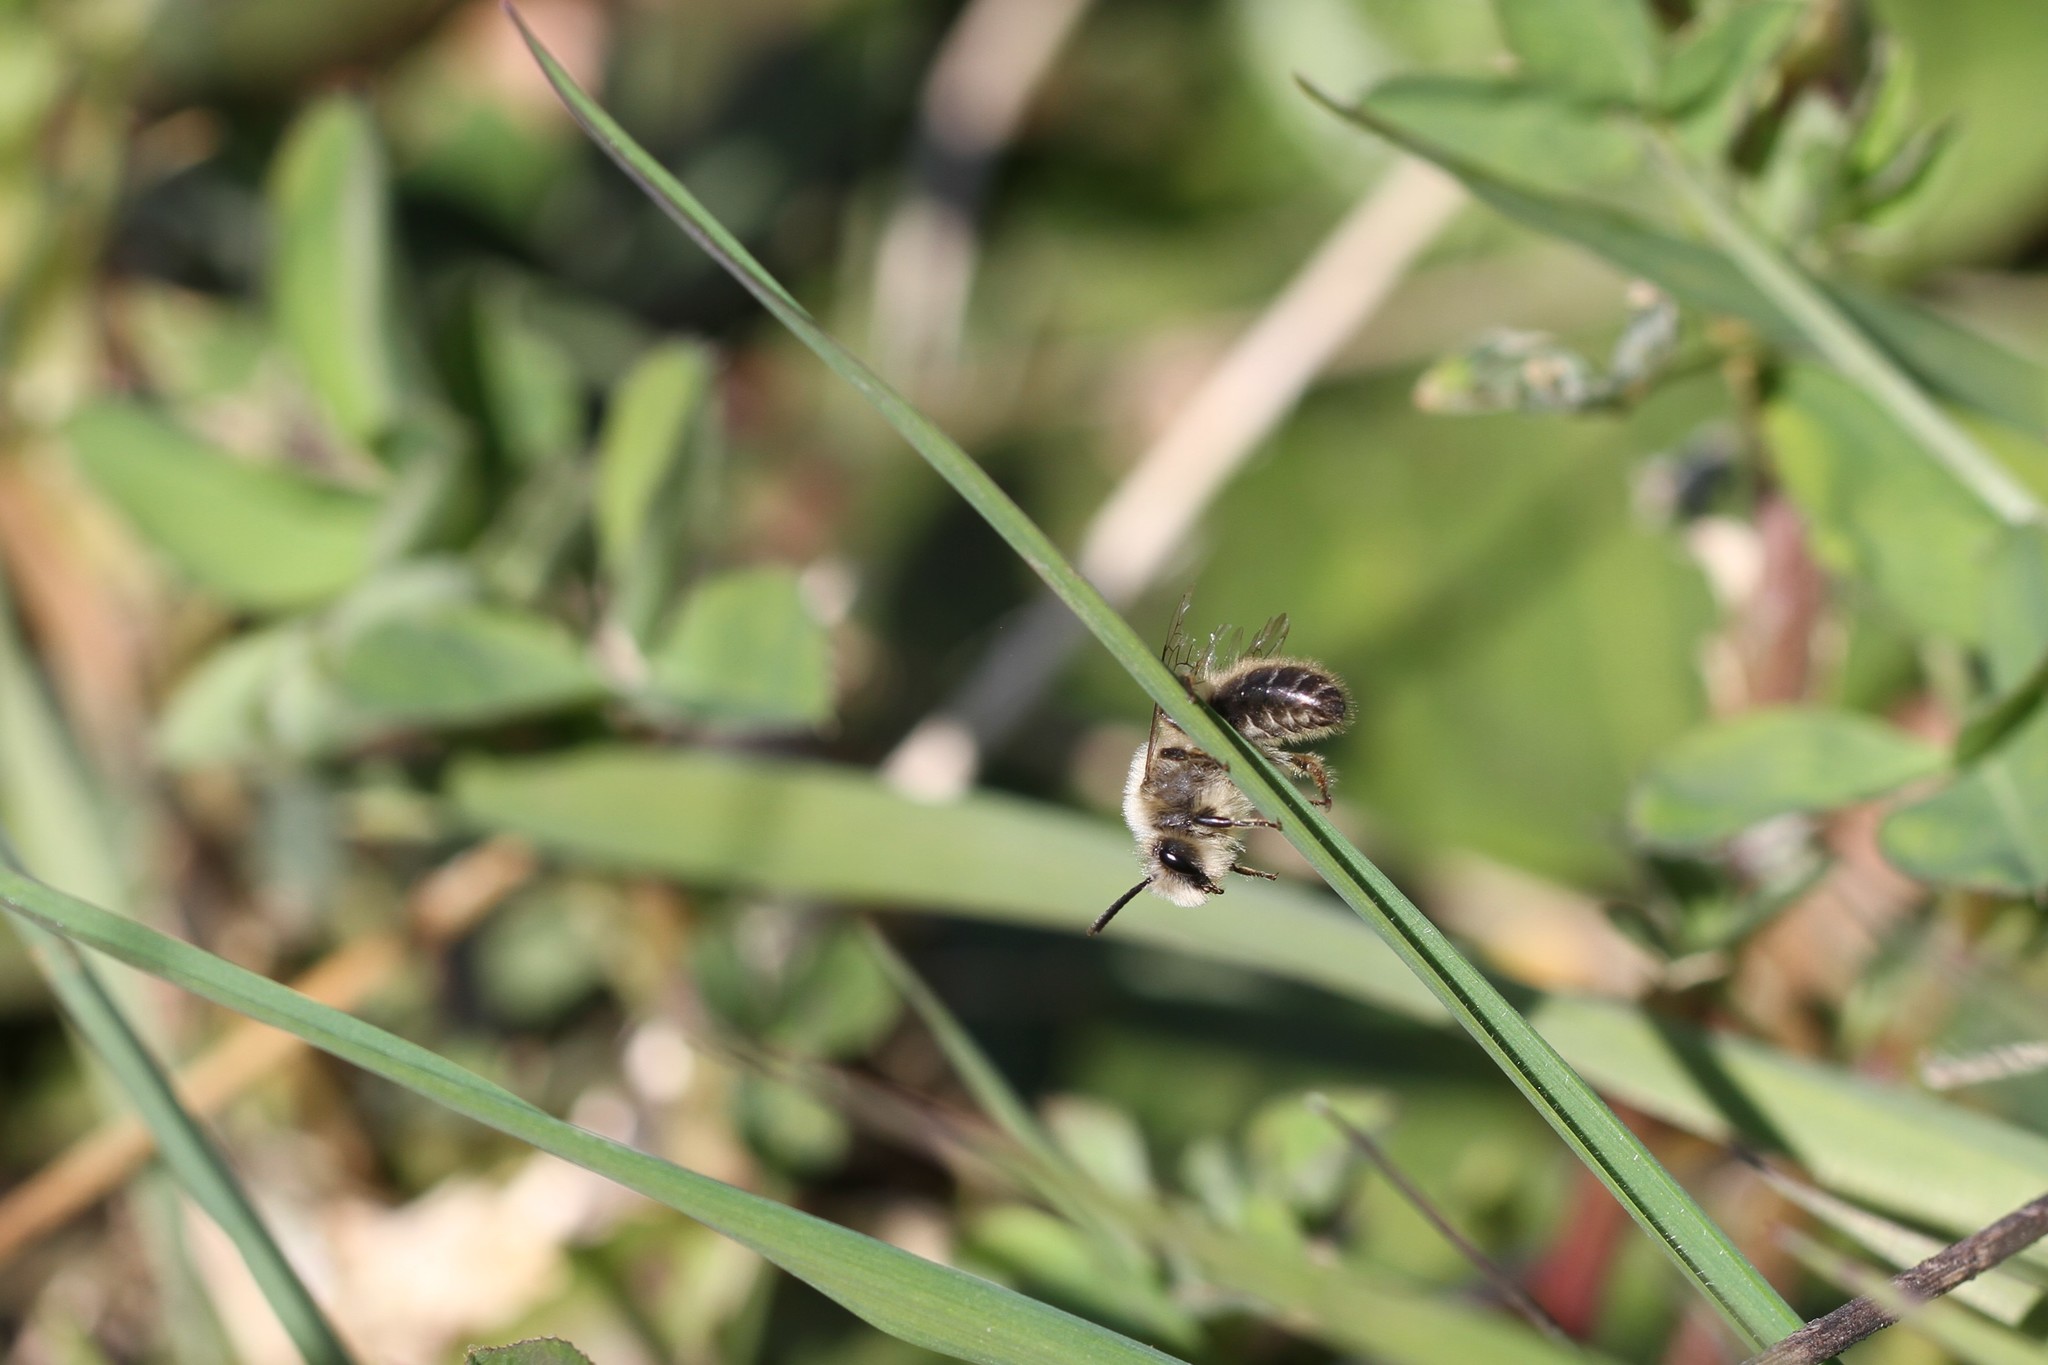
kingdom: Animalia
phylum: Arthropoda
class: Insecta
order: Hymenoptera
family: Colletidae
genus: Colletes
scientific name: Colletes cunicularius
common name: Early colletes
